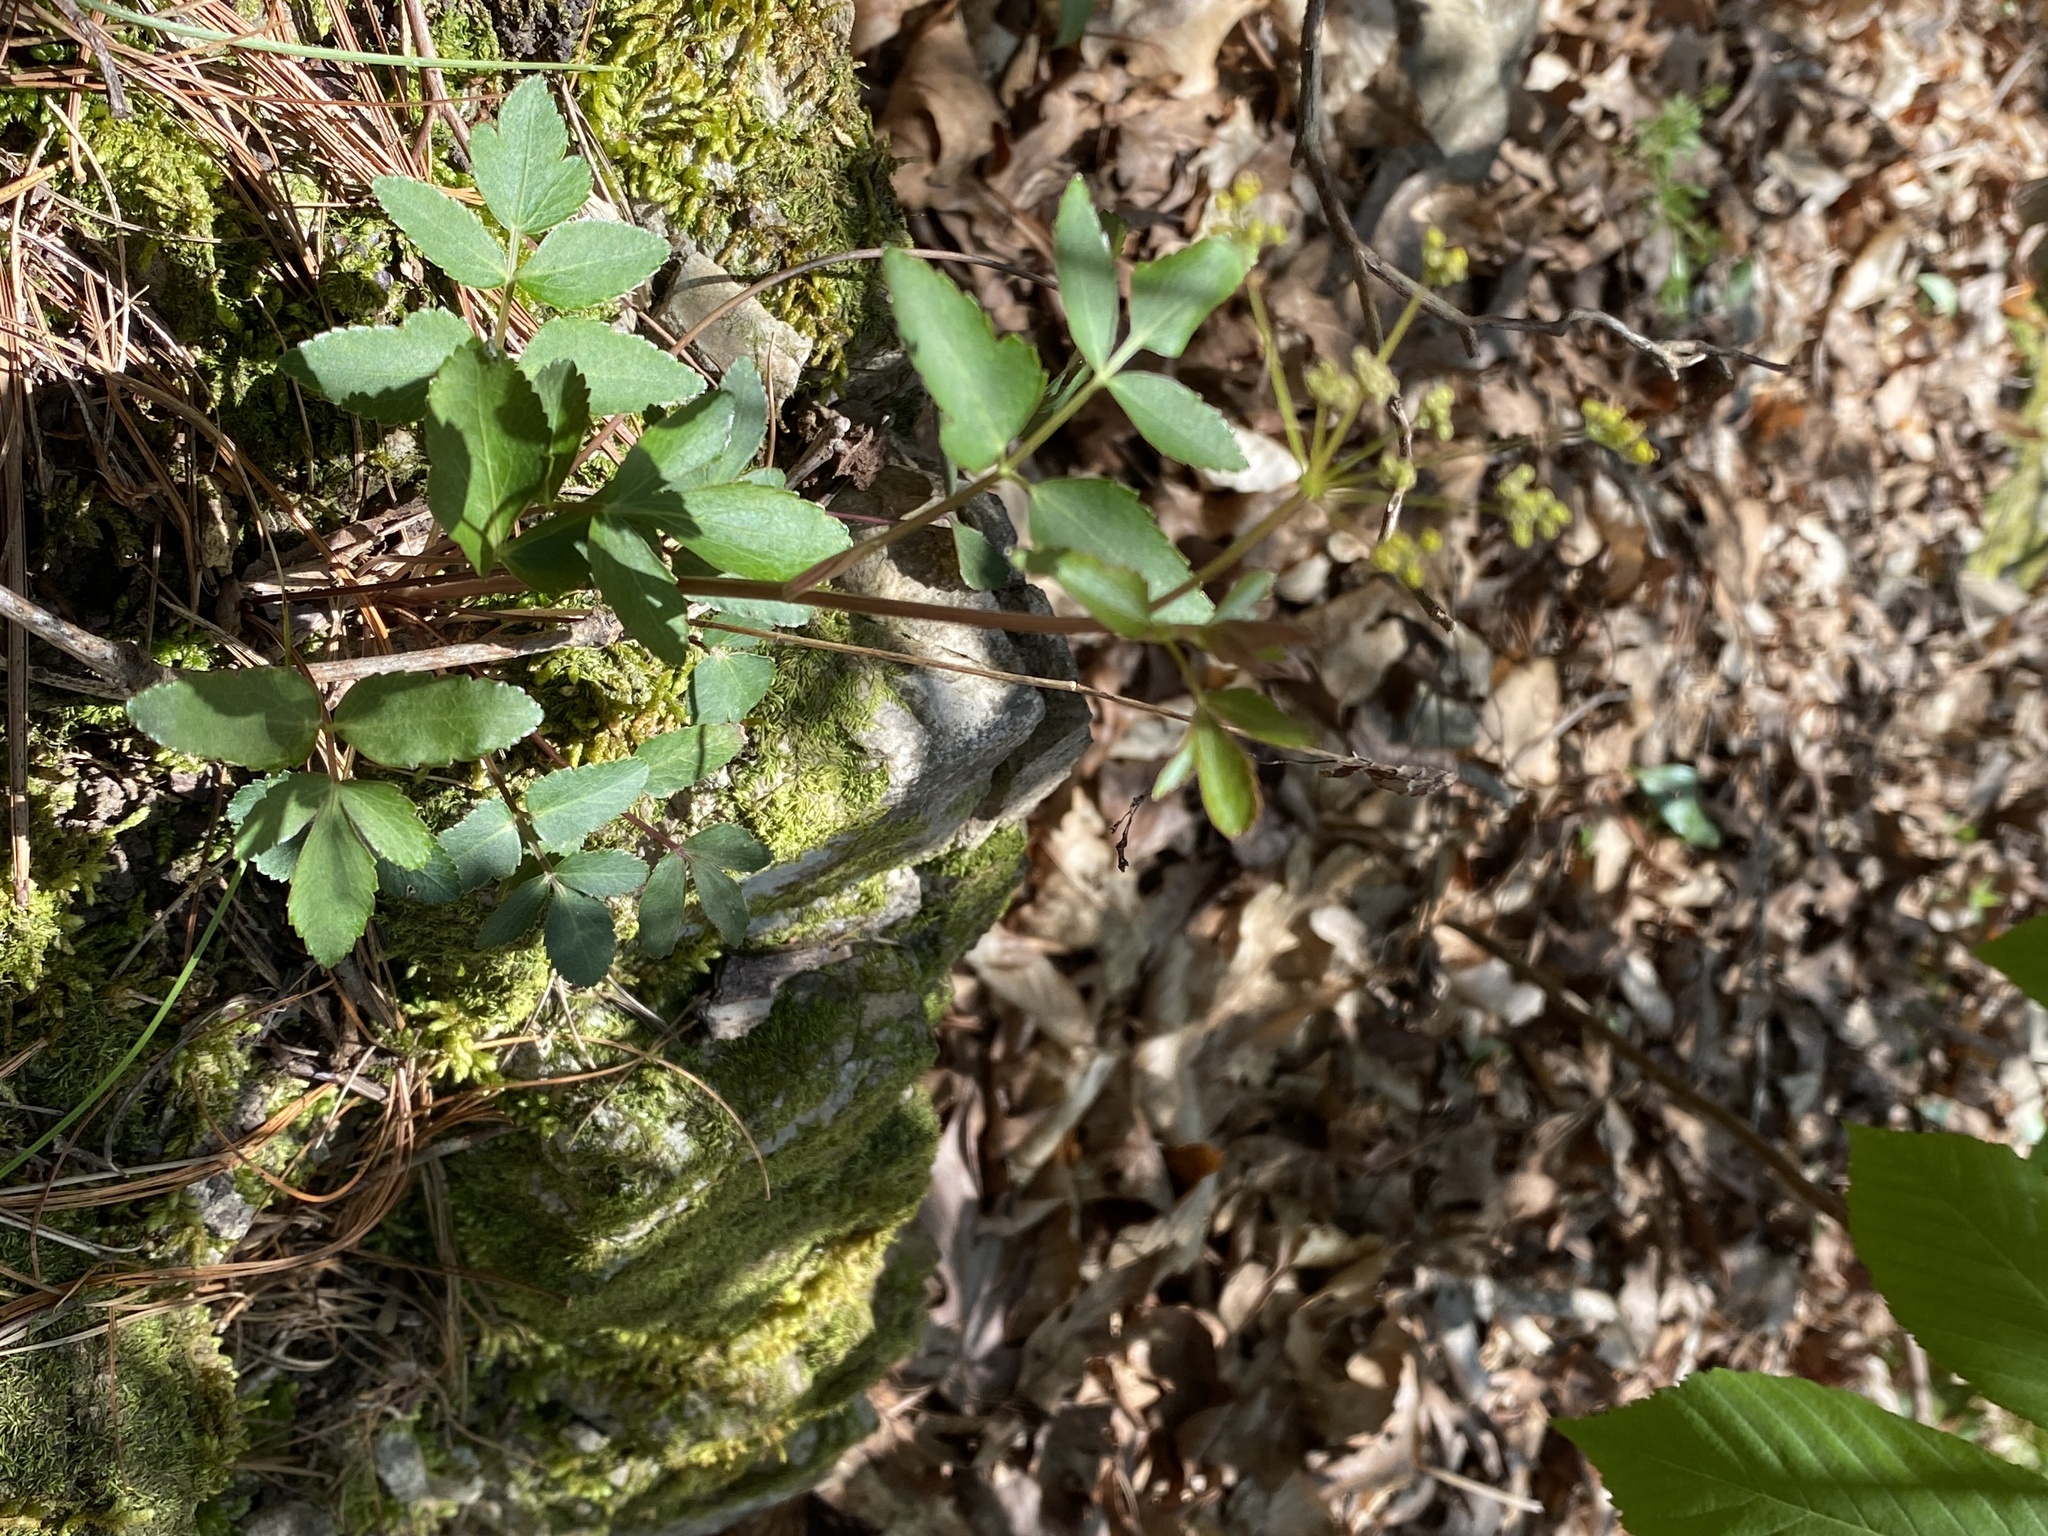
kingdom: Plantae
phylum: Tracheophyta
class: Magnoliopsida
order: Apiales
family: Apiaceae
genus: Zizia
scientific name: Zizia aurea
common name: Golden alexanders
